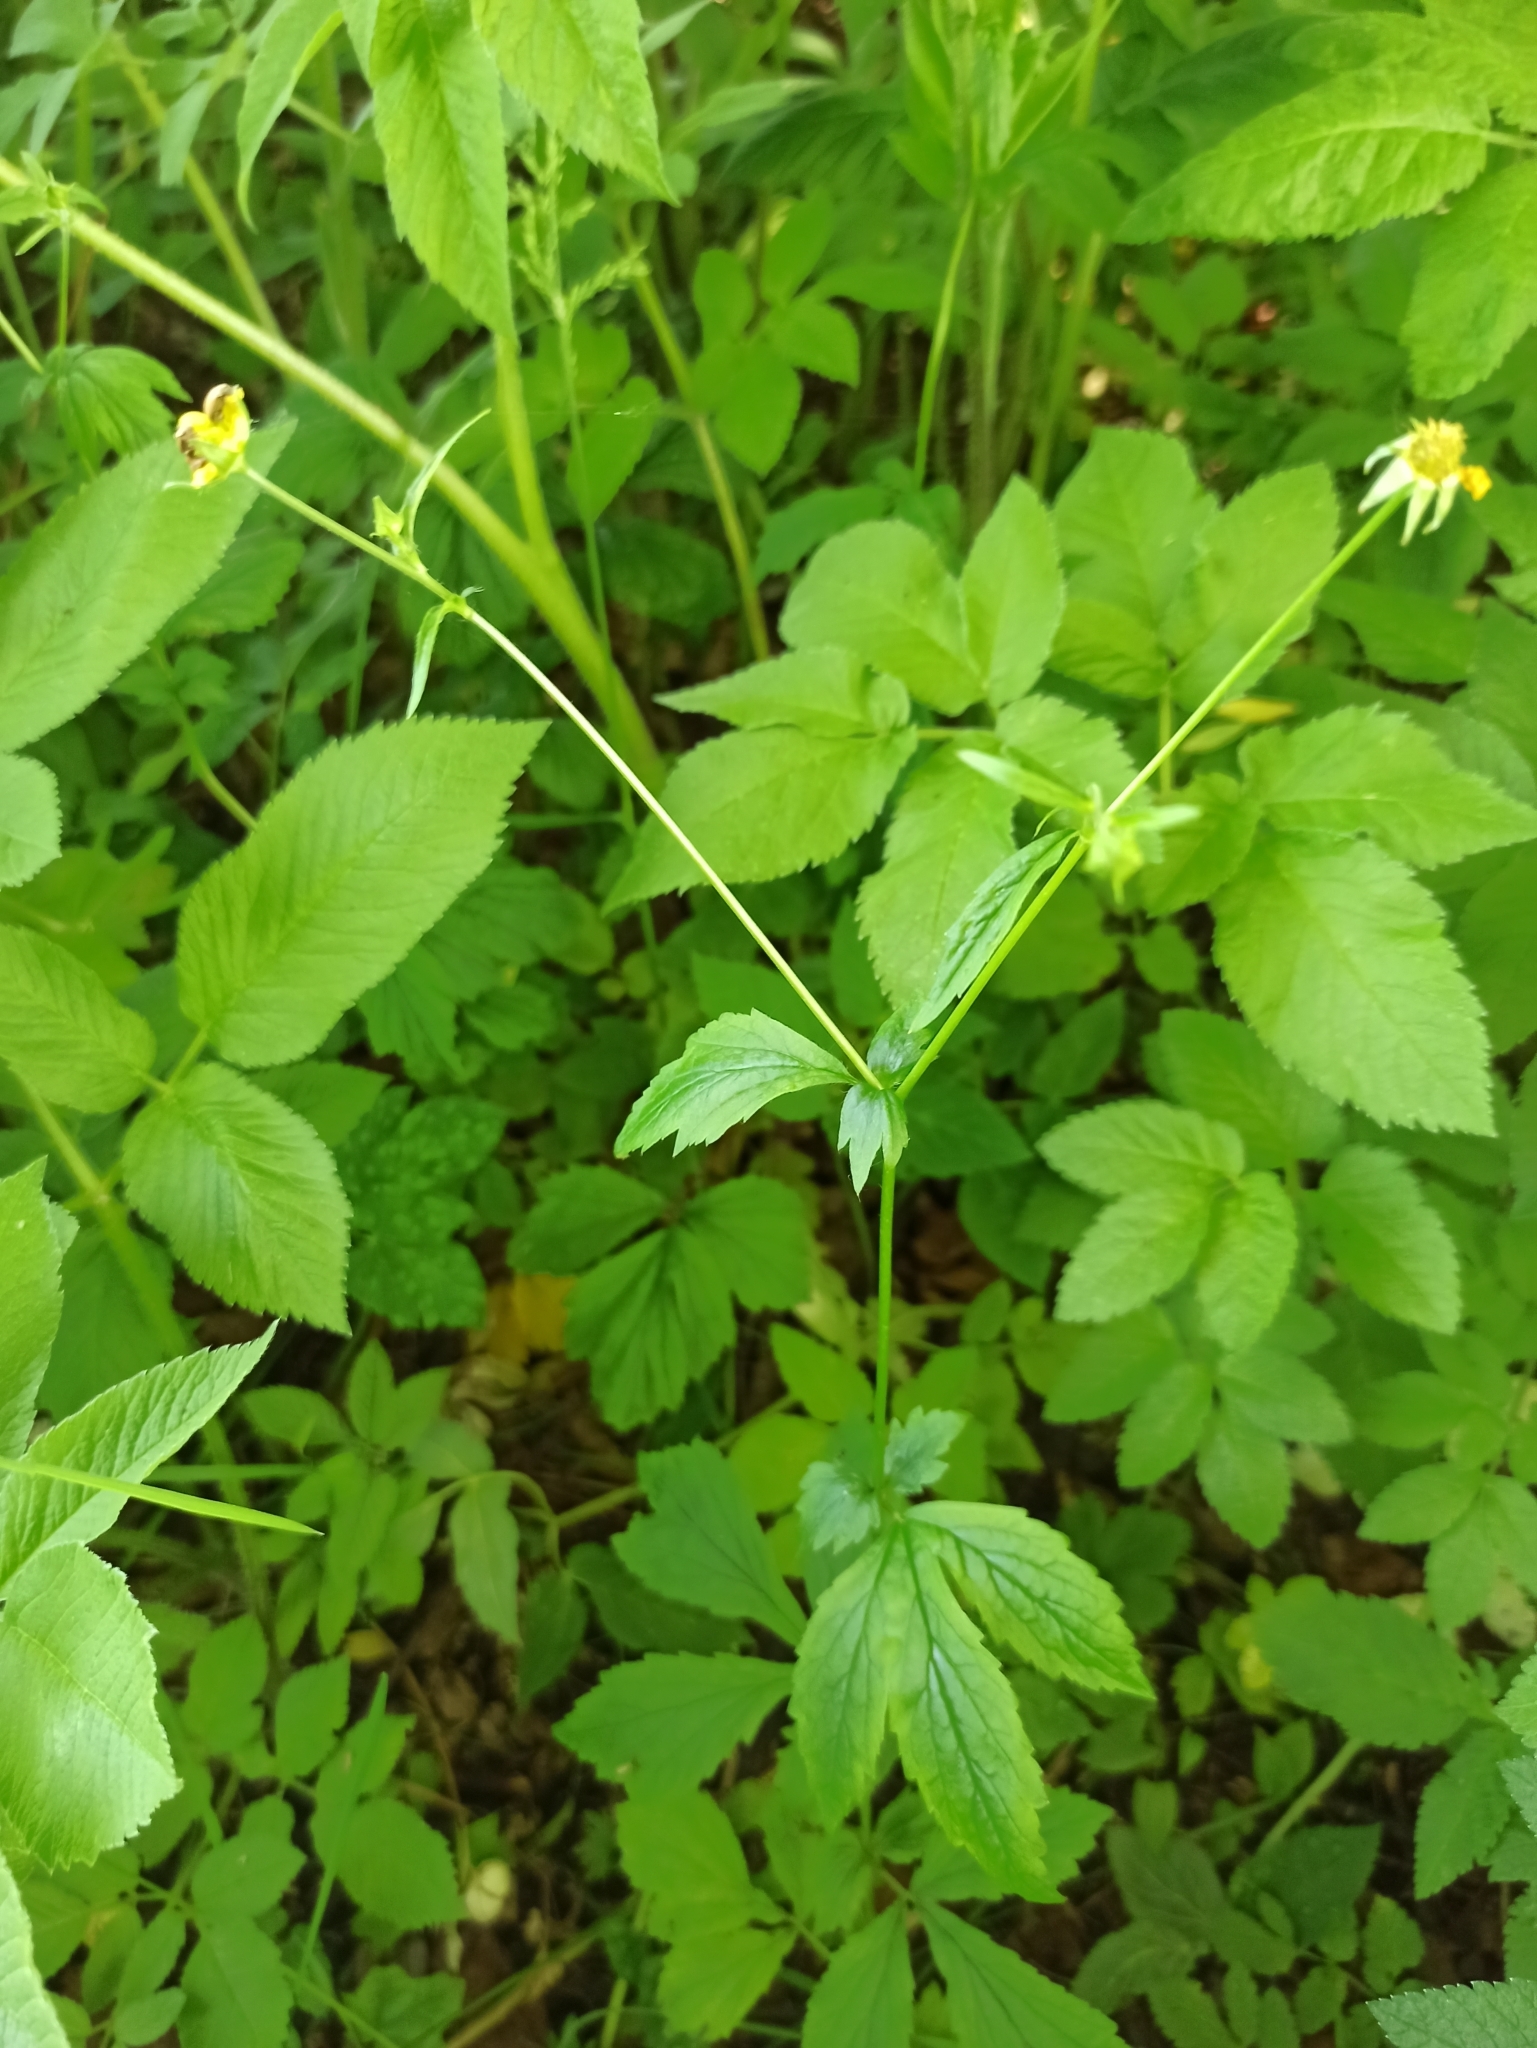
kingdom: Plantae
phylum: Tracheophyta
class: Magnoliopsida
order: Rosales
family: Rosaceae
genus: Geum
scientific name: Geum urbanum
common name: Wood avens
